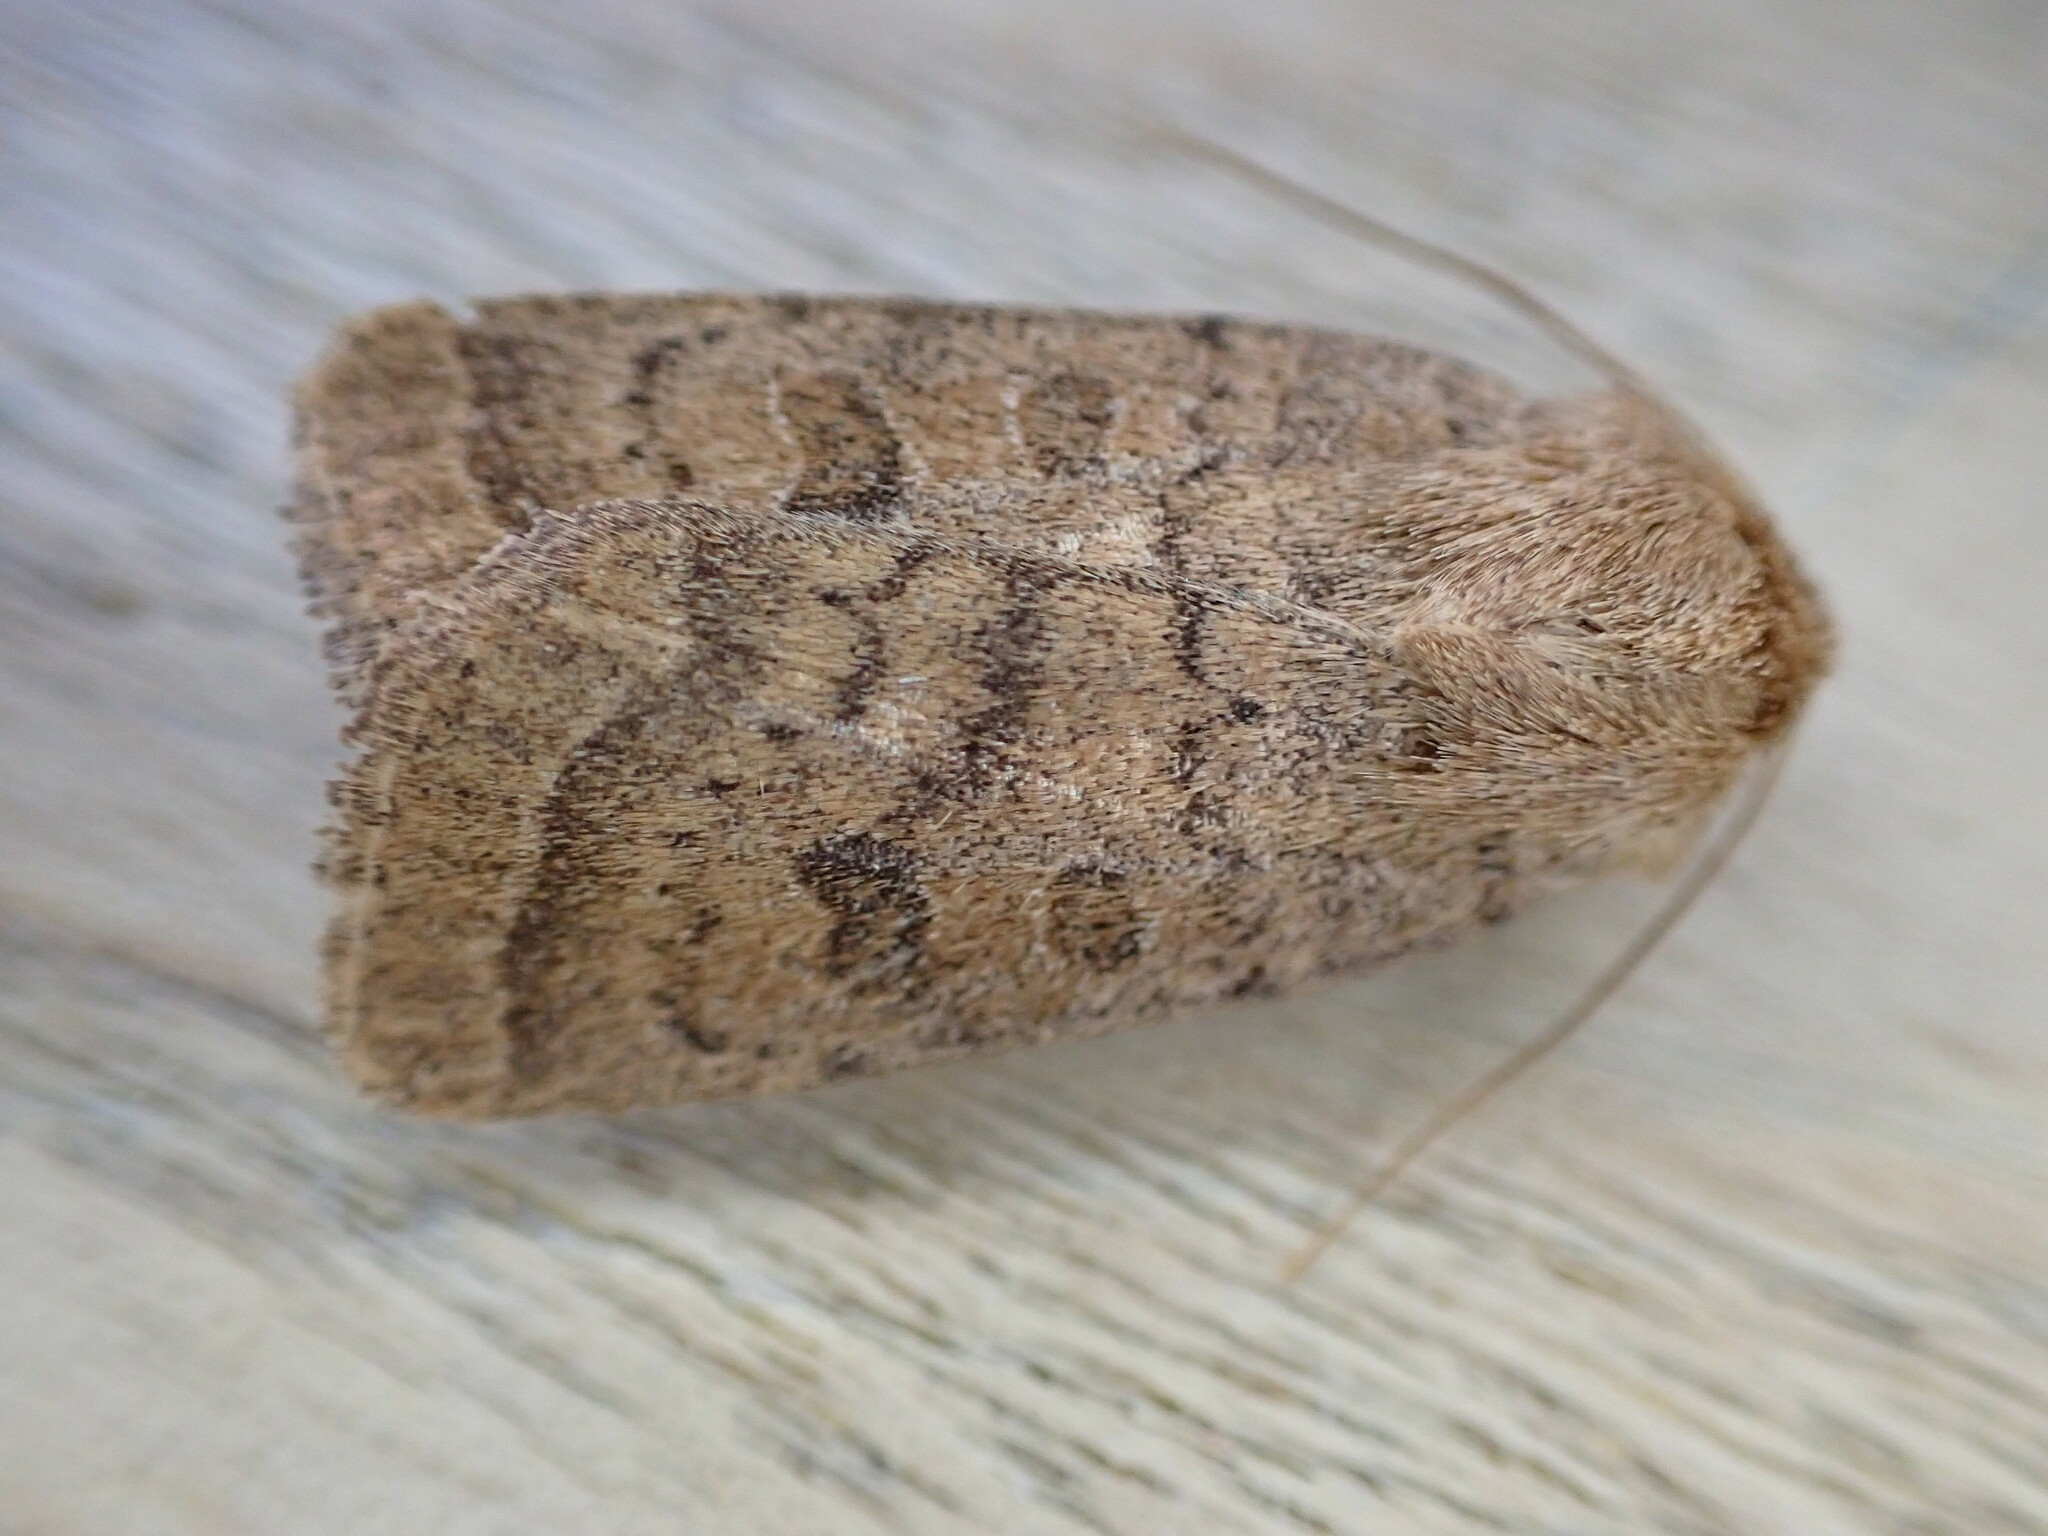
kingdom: Animalia
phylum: Arthropoda
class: Insecta
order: Lepidoptera
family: Noctuidae
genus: Hoplodrina
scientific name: Hoplodrina octogenaria
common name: Uncertain
